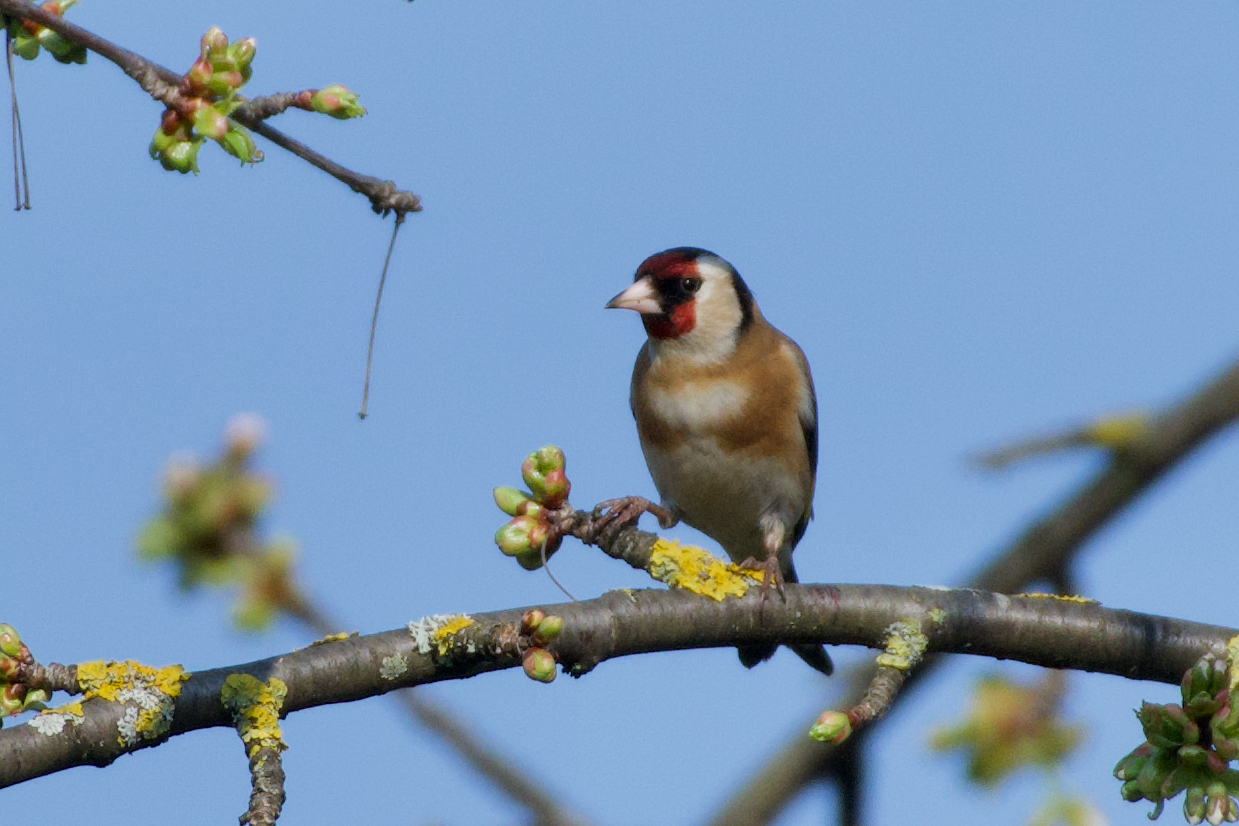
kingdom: Animalia
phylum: Chordata
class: Aves
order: Passeriformes
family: Fringillidae
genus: Carduelis
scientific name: Carduelis carduelis
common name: European goldfinch
